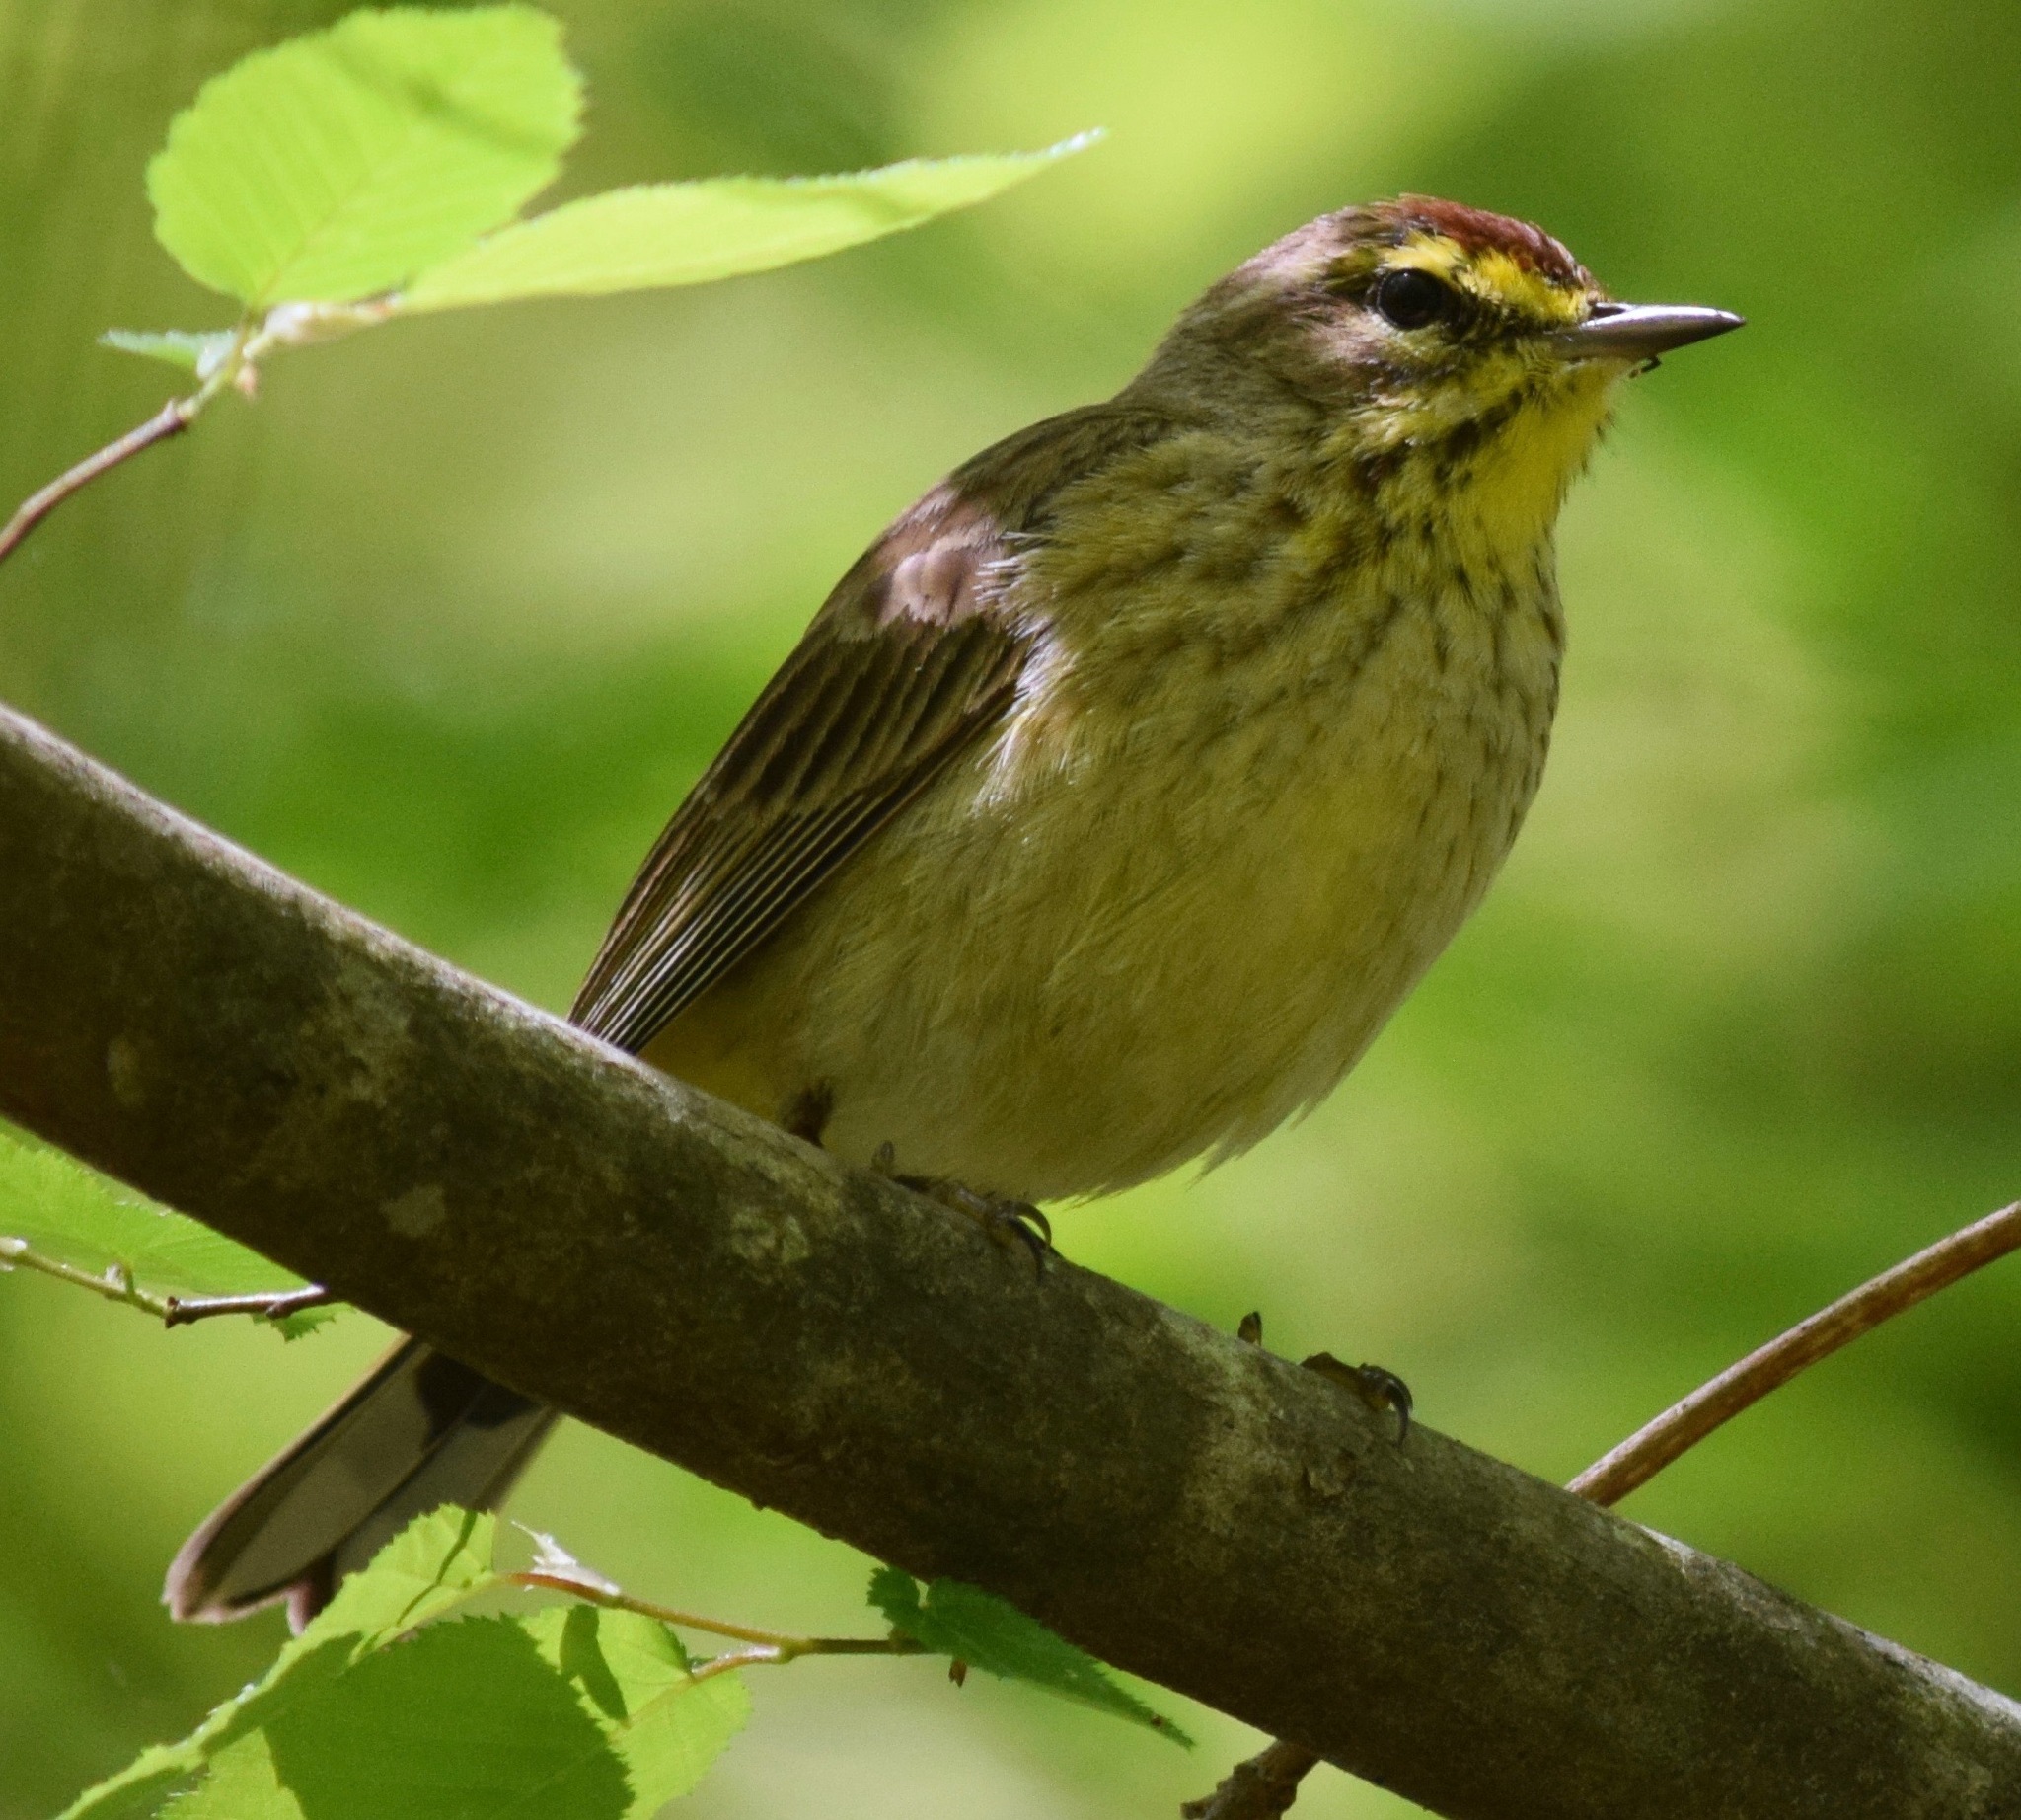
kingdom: Animalia
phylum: Chordata
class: Aves
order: Passeriformes
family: Parulidae
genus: Setophaga
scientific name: Setophaga palmarum
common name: Palm warbler
